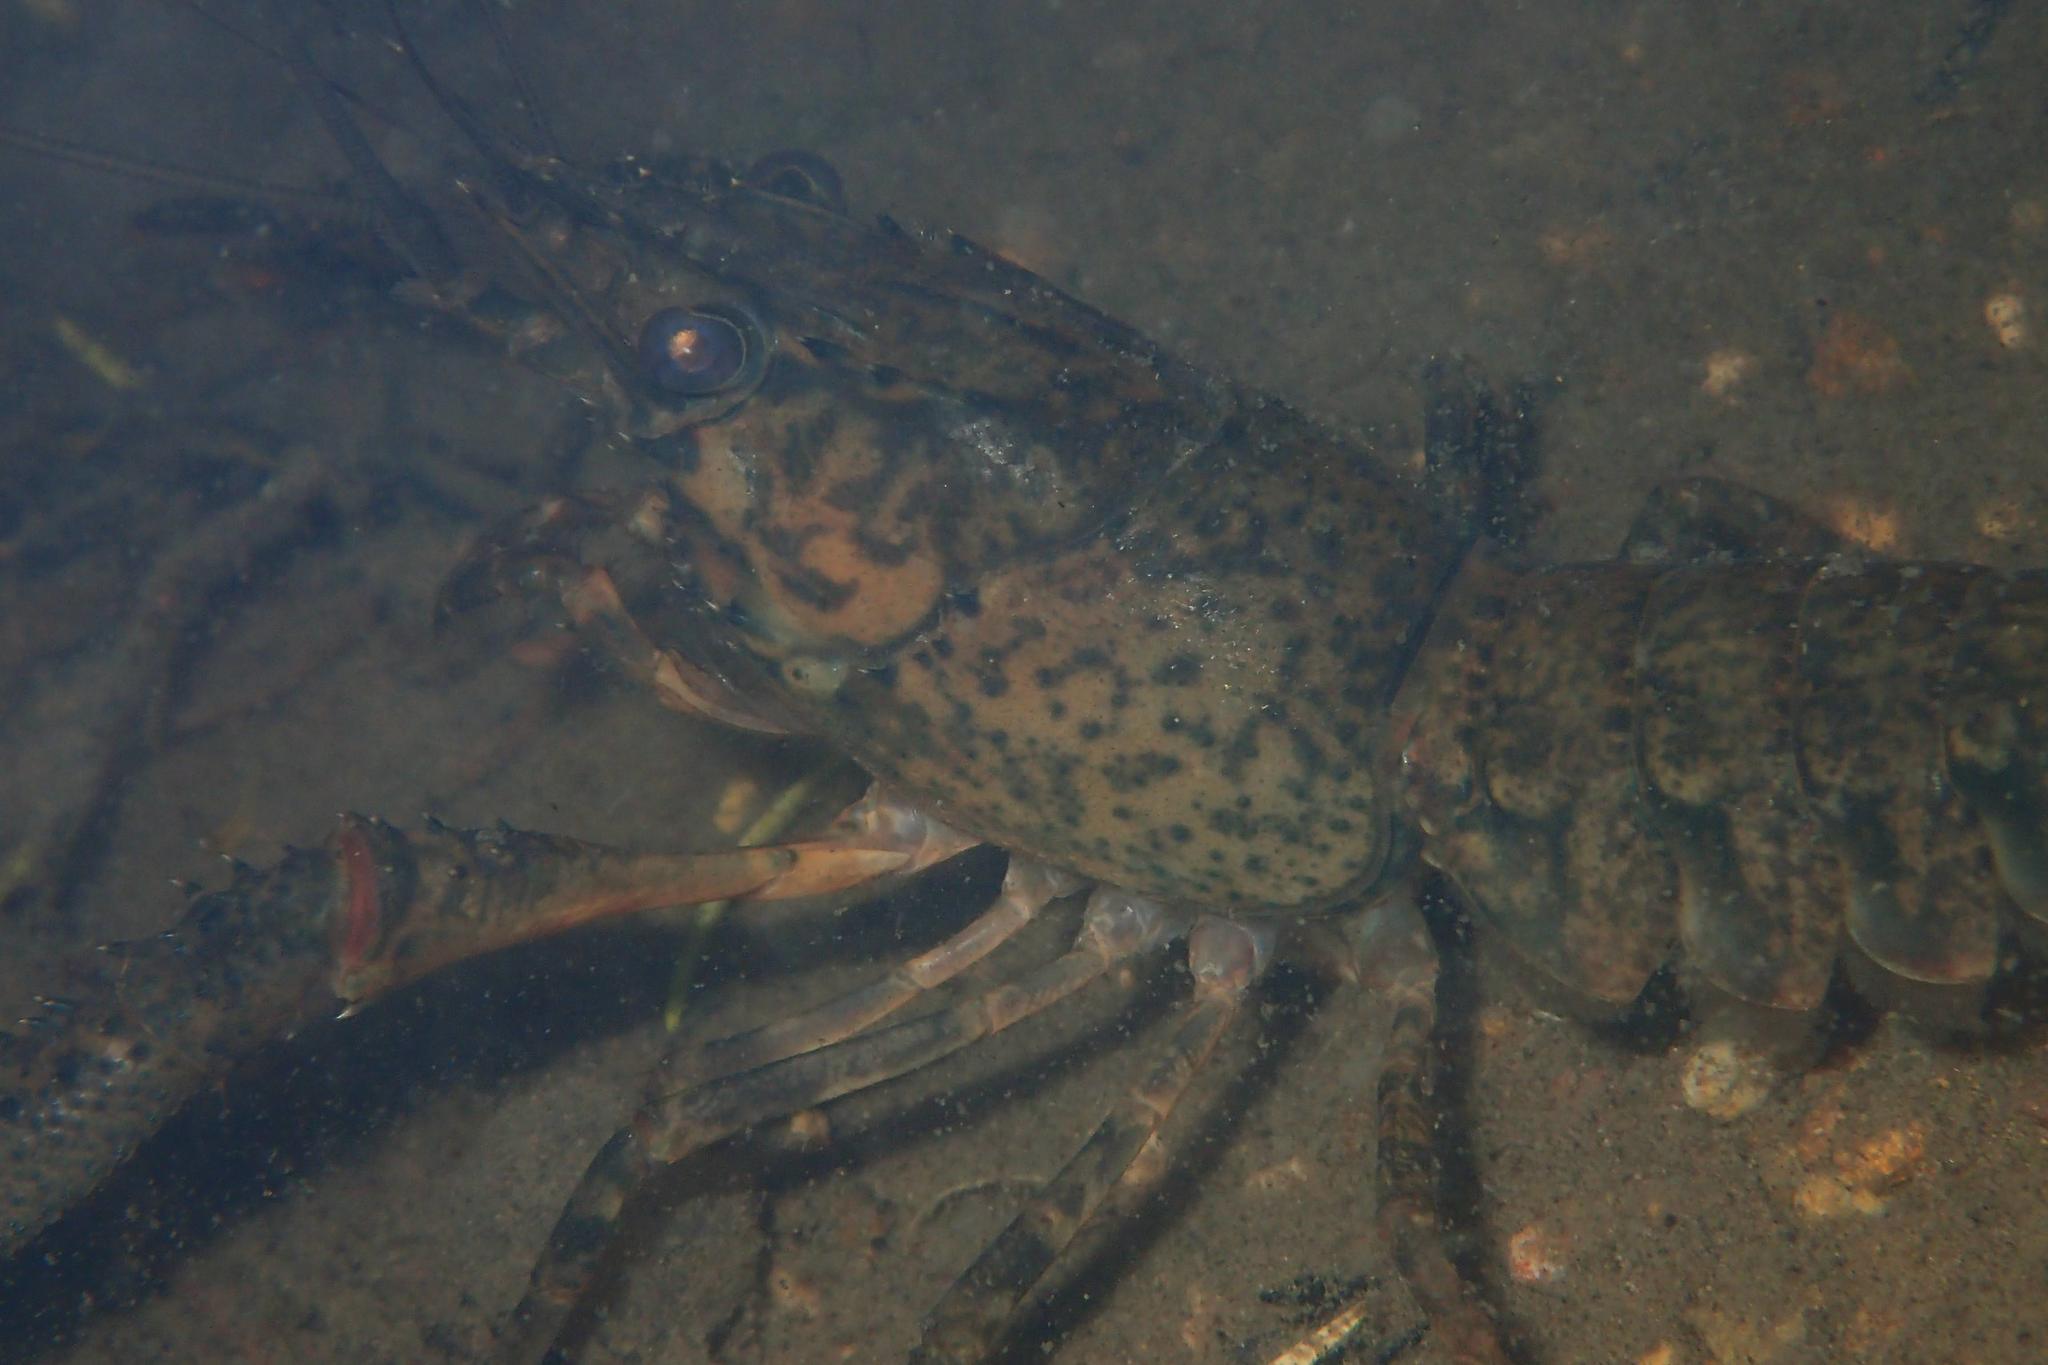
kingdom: Animalia
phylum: Arthropoda
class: Malacostraca
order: Decapoda
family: Parastacidae
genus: Paranephrops
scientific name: Paranephrops planifrons
